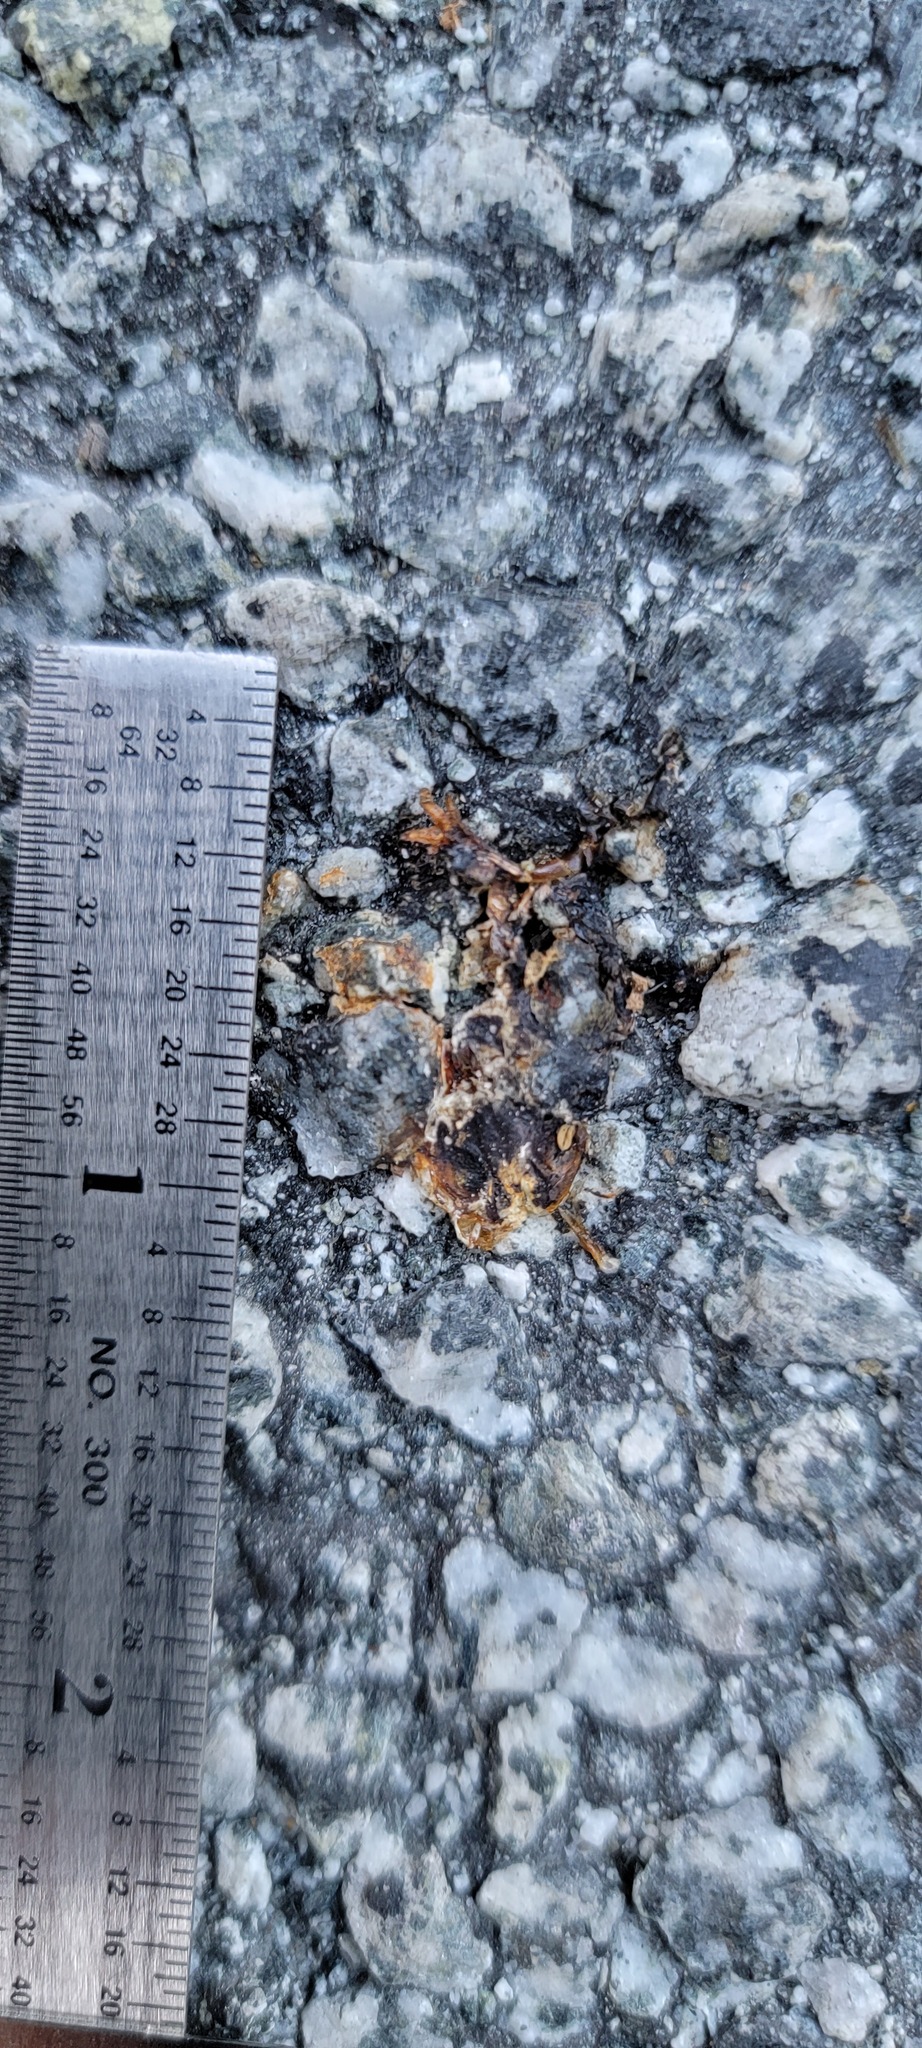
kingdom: Animalia
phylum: Chordata
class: Amphibia
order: Caudata
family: Salamandridae
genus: Taricha
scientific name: Taricha
